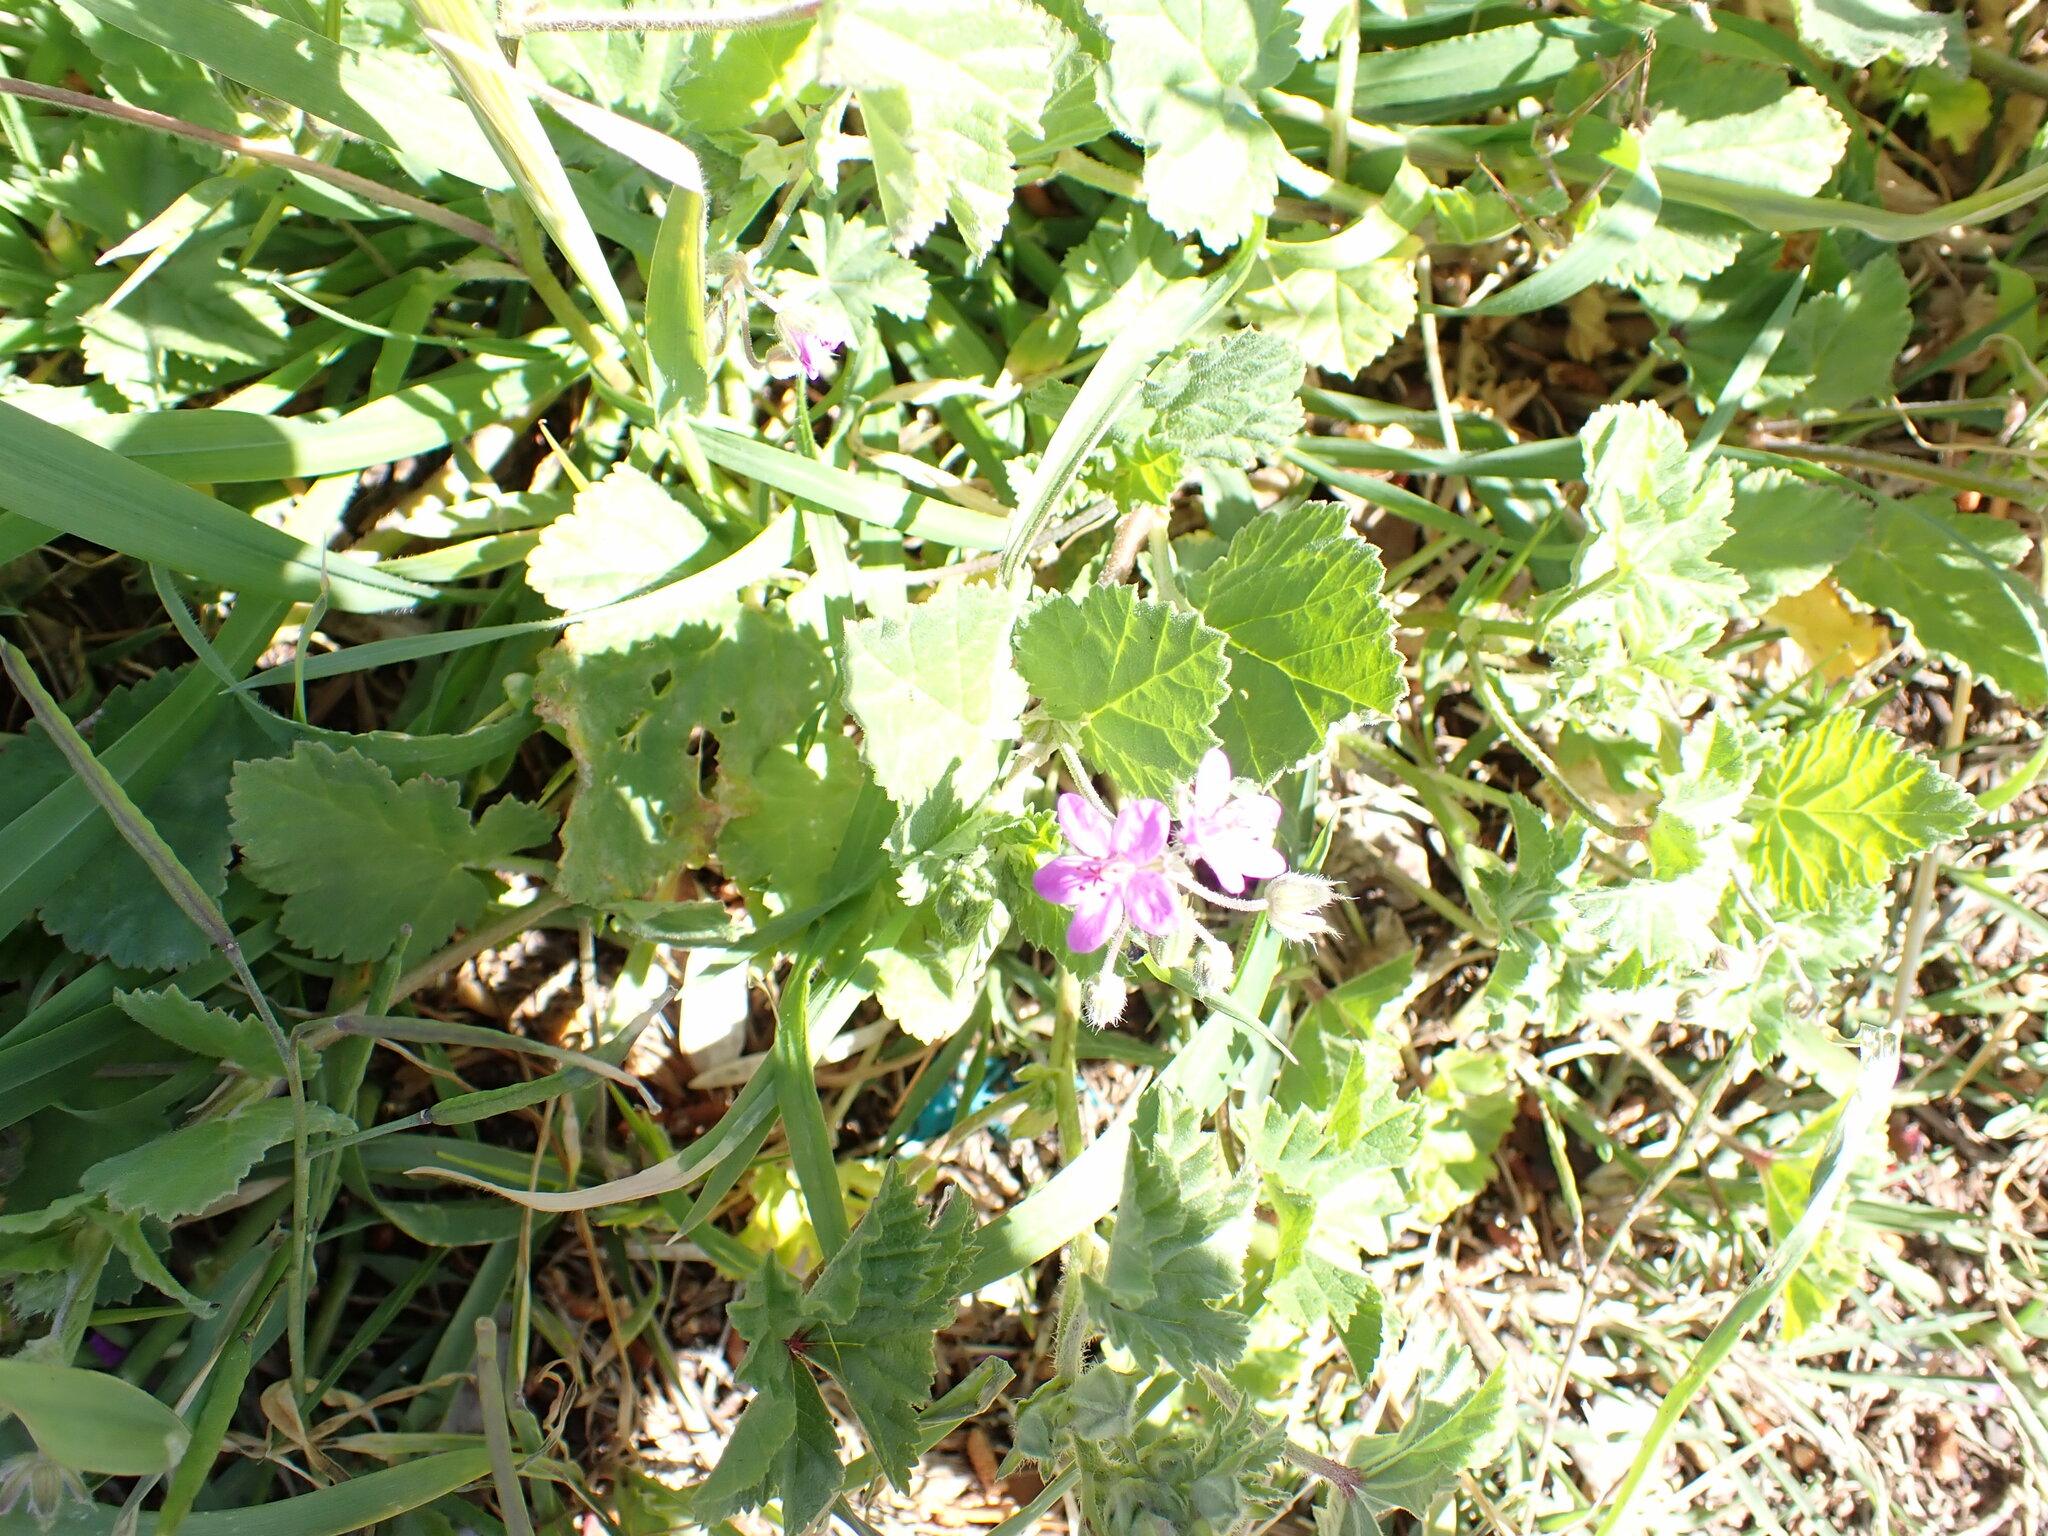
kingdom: Plantae
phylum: Tracheophyta
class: Magnoliopsida
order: Geraniales
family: Geraniaceae
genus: Erodium
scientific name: Erodium malacoides
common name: Soft stork's-bill
